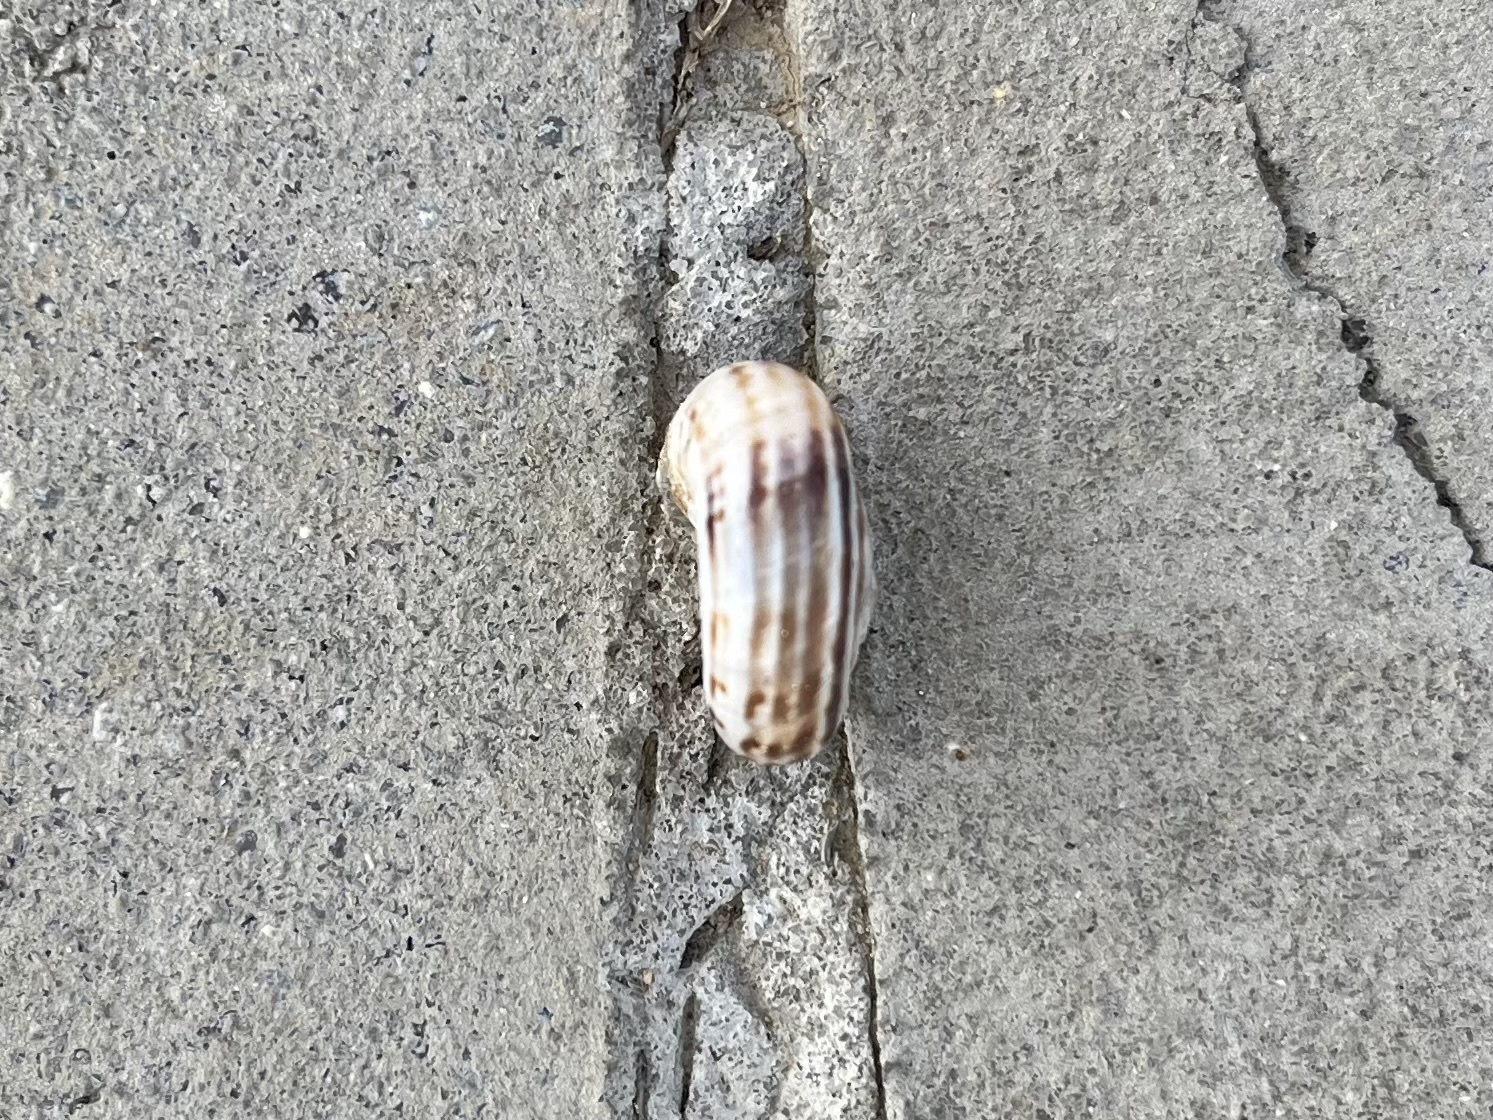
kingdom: Animalia
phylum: Mollusca
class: Gastropoda
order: Stylommatophora
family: Geomitridae
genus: Xerolenta
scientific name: Xerolenta obvia
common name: White heath snail
